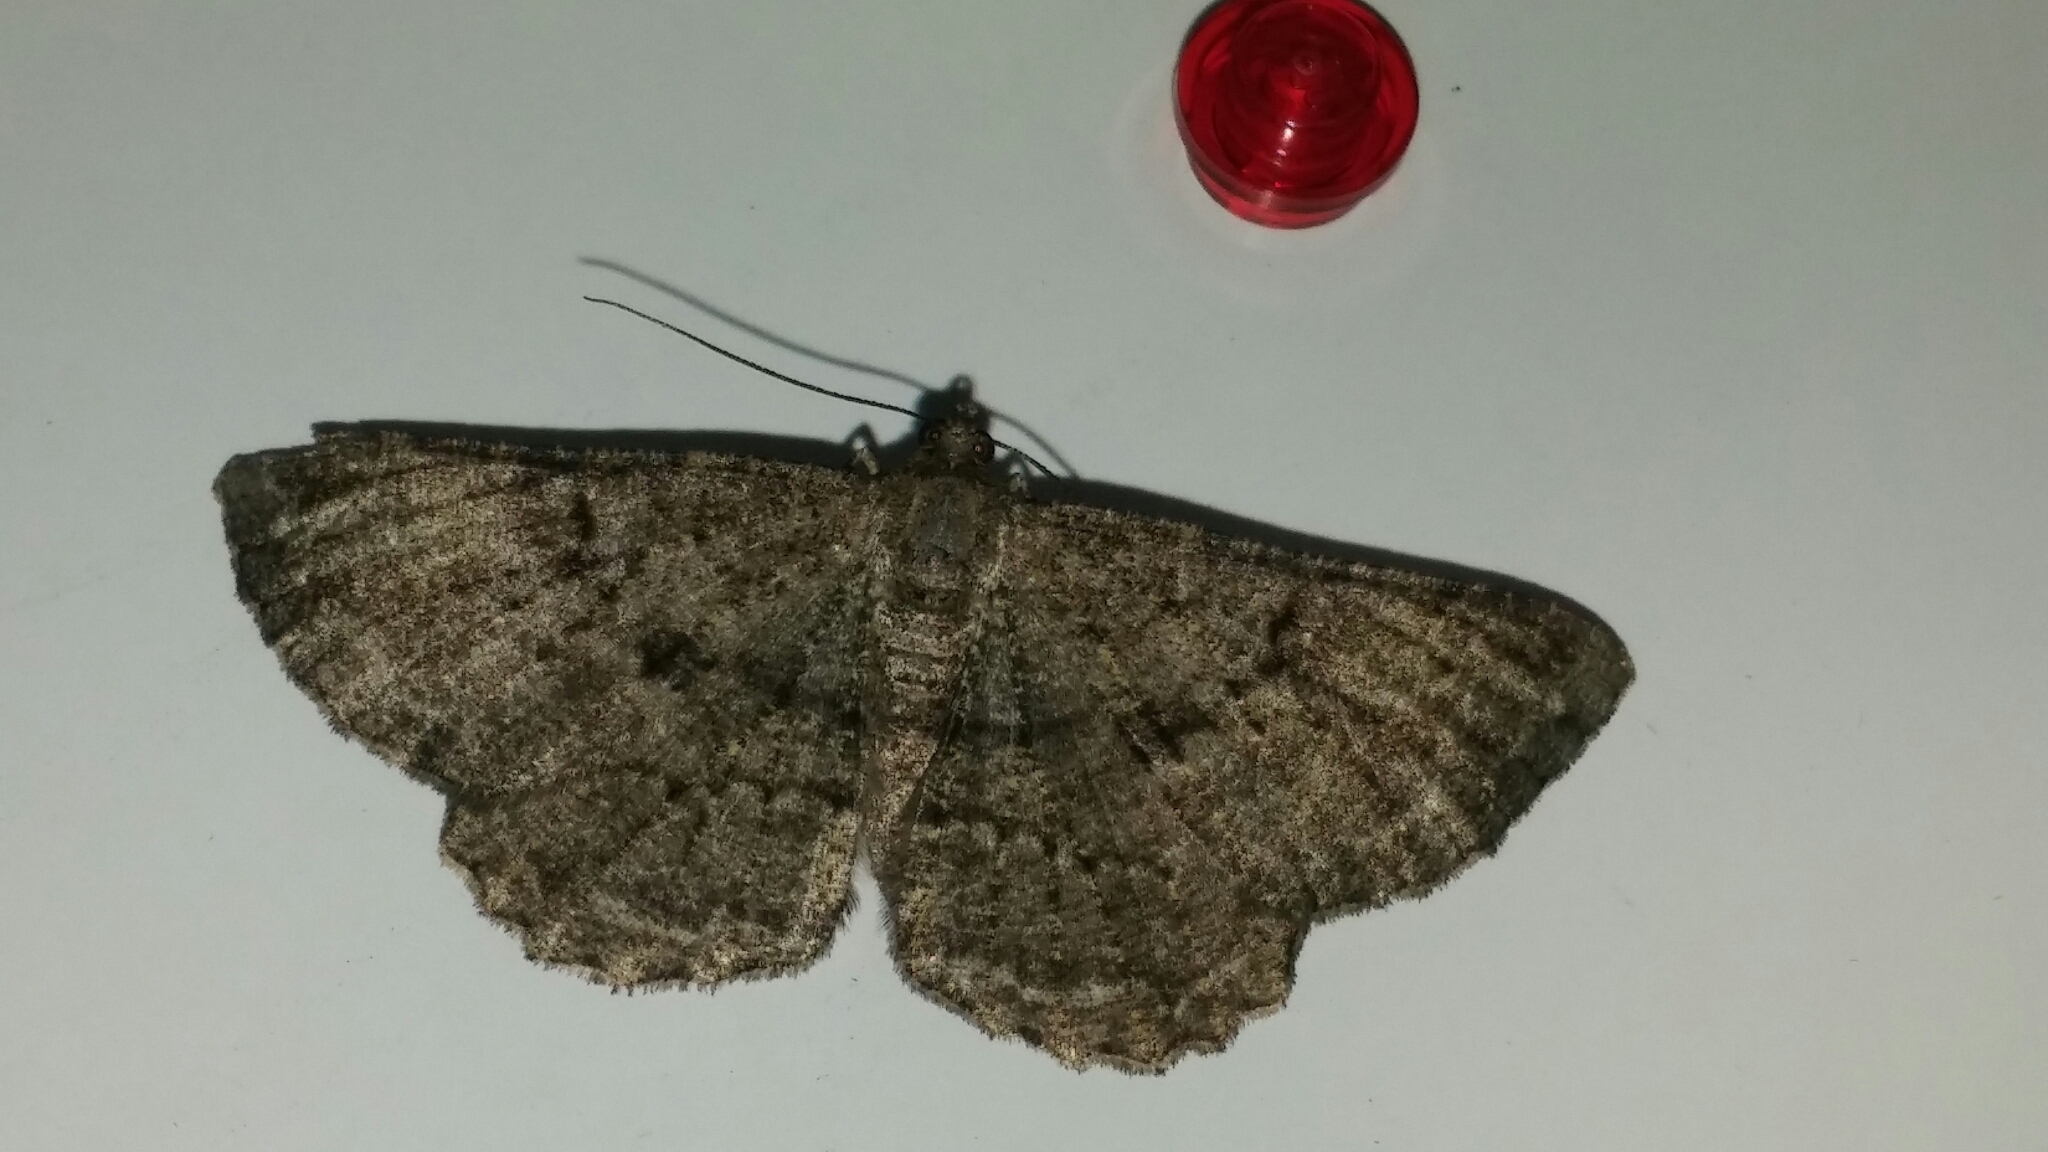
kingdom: Animalia
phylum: Arthropoda
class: Insecta
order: Lepidoptera
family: Geometridae
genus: Peribatodes
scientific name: Peribatodes rhomboidaria
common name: Willow beauty
